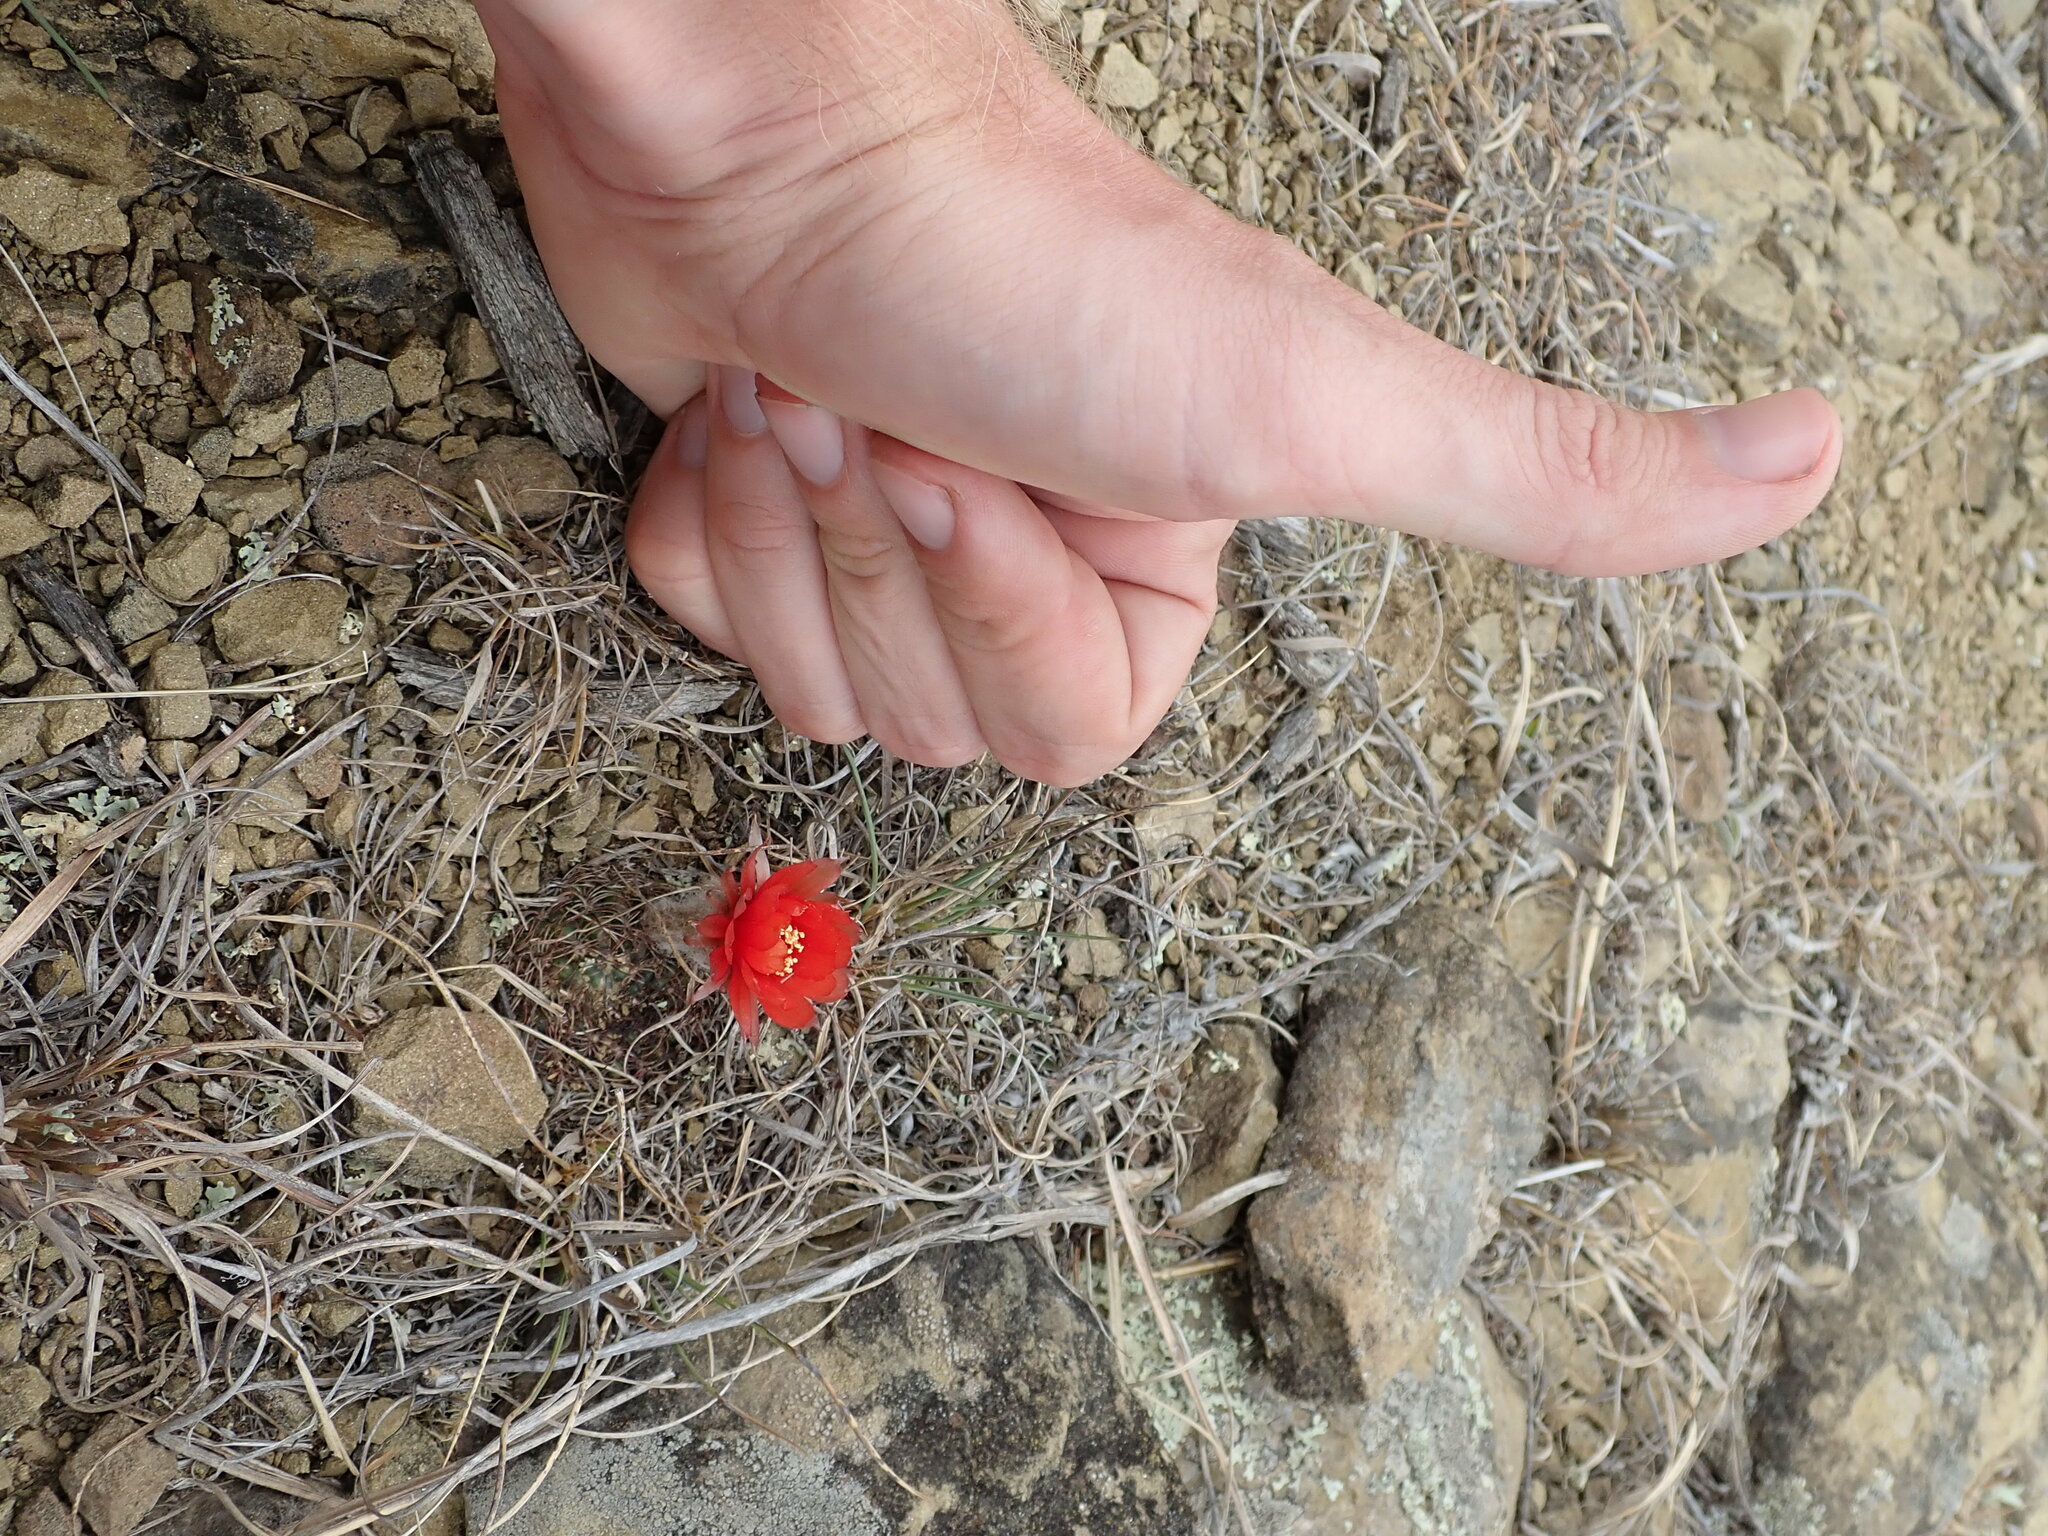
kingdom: Plantae
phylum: Tracheophyta
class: Magnoliopsida
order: Caryophyllales
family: Cactaceae
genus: Lobivia
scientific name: Lobivia tiegeliana
